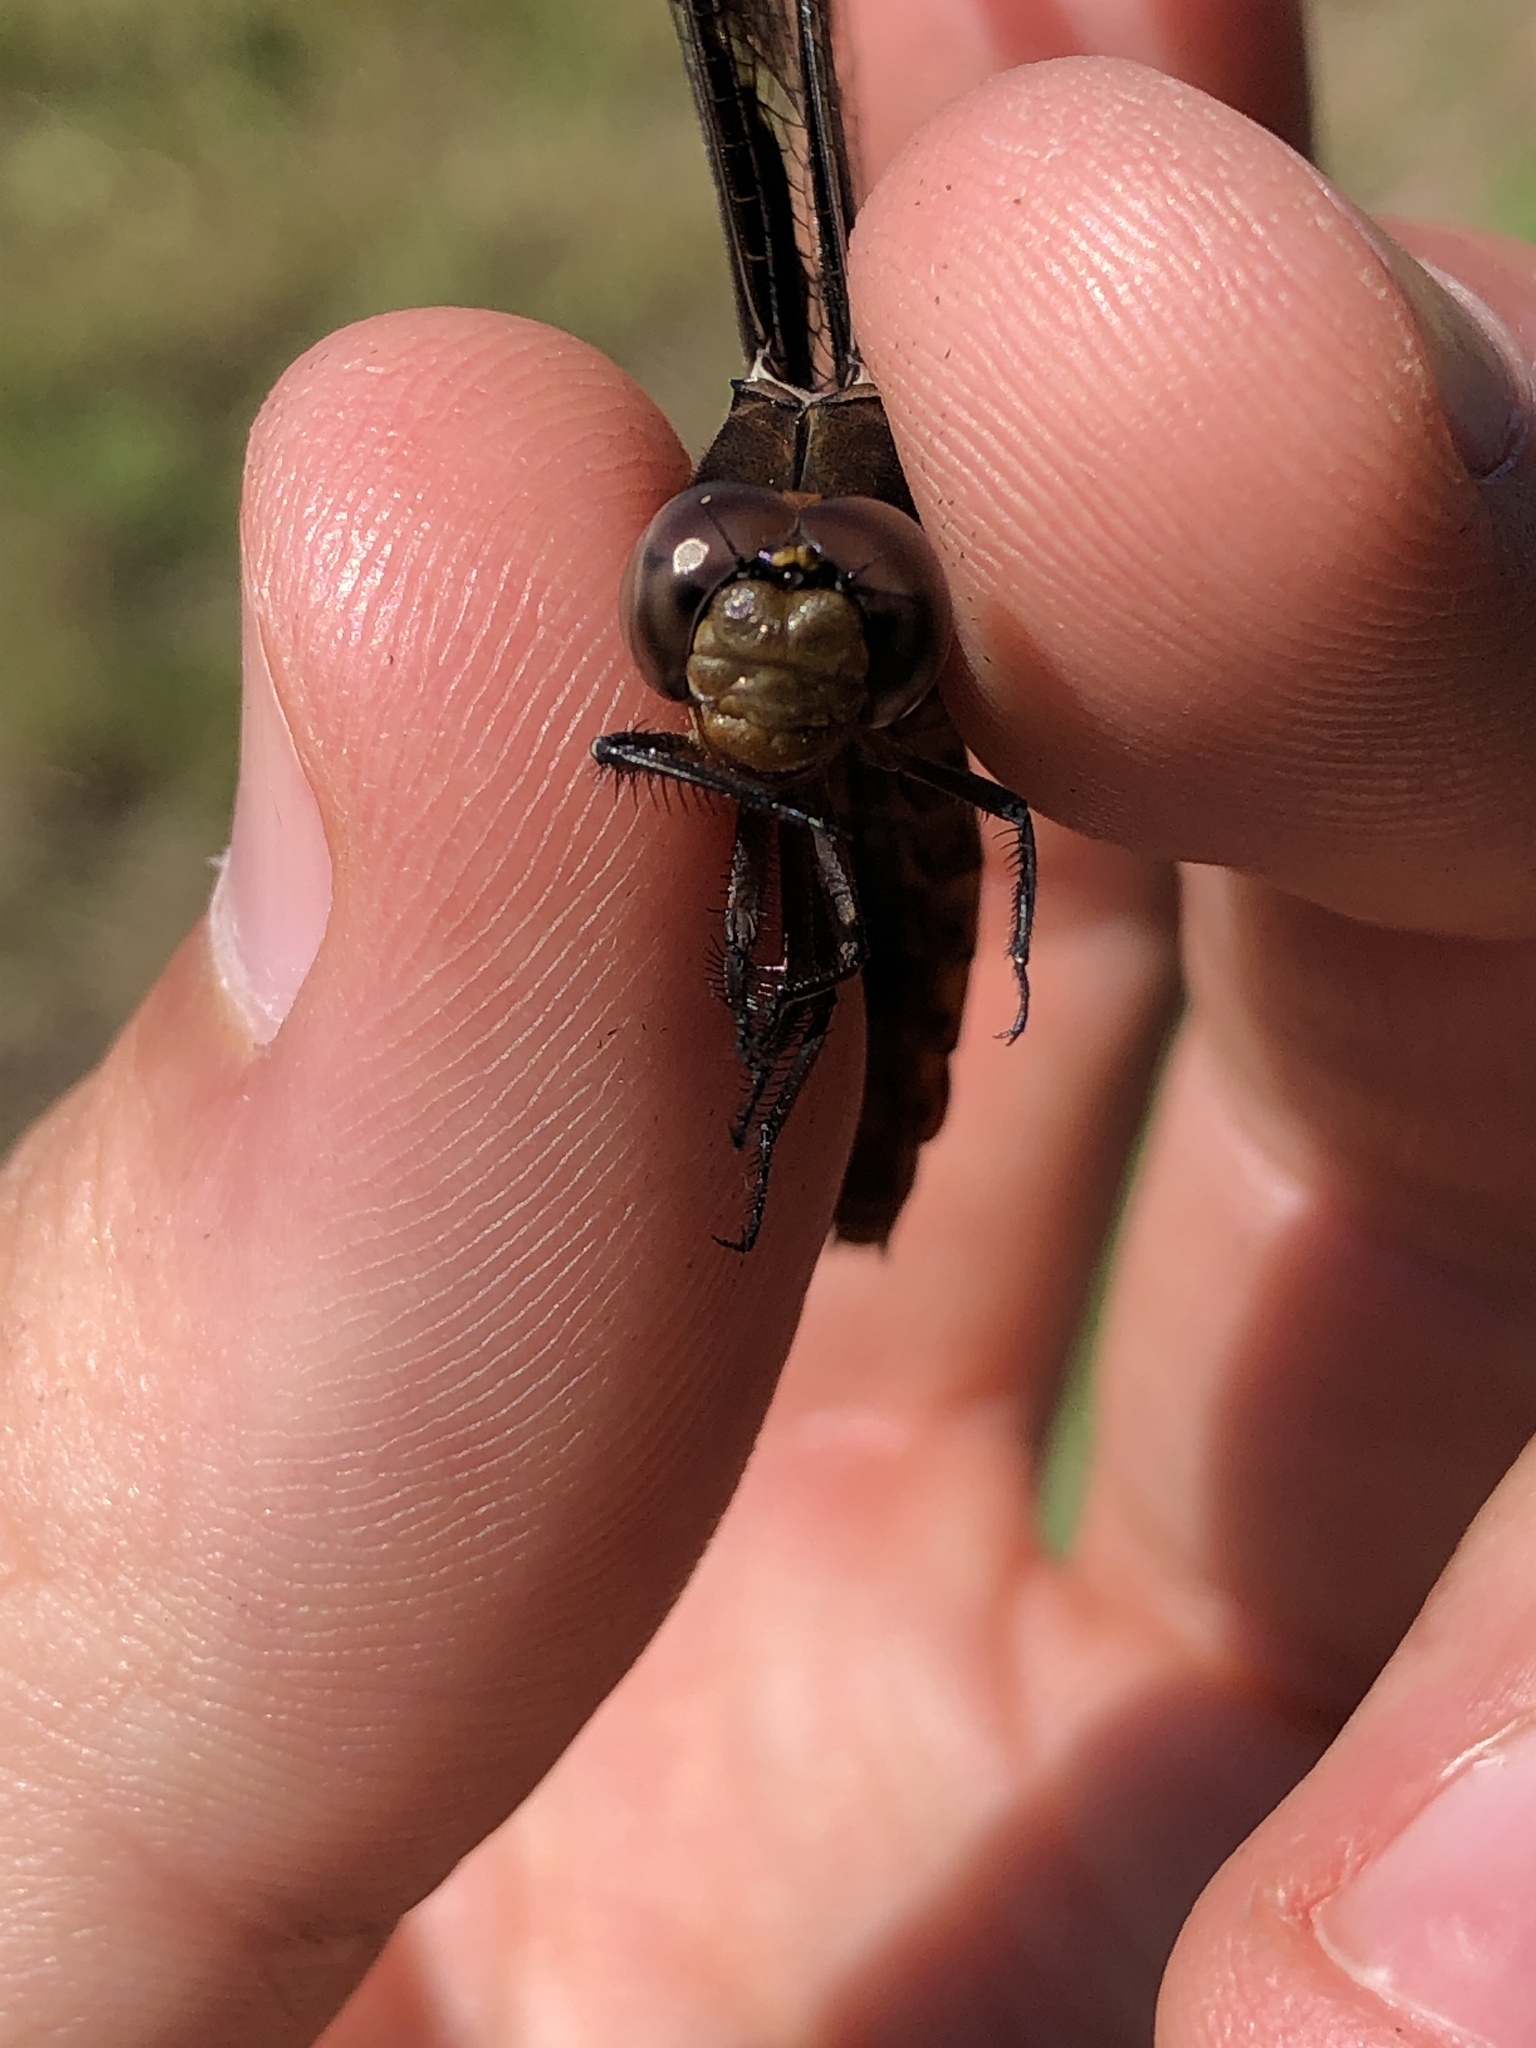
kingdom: Animalia
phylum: Arthropoda
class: Insecta
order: Odonata
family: Libellulidae
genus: Plathemis
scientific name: Plathemis lydia
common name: Common whitetail
